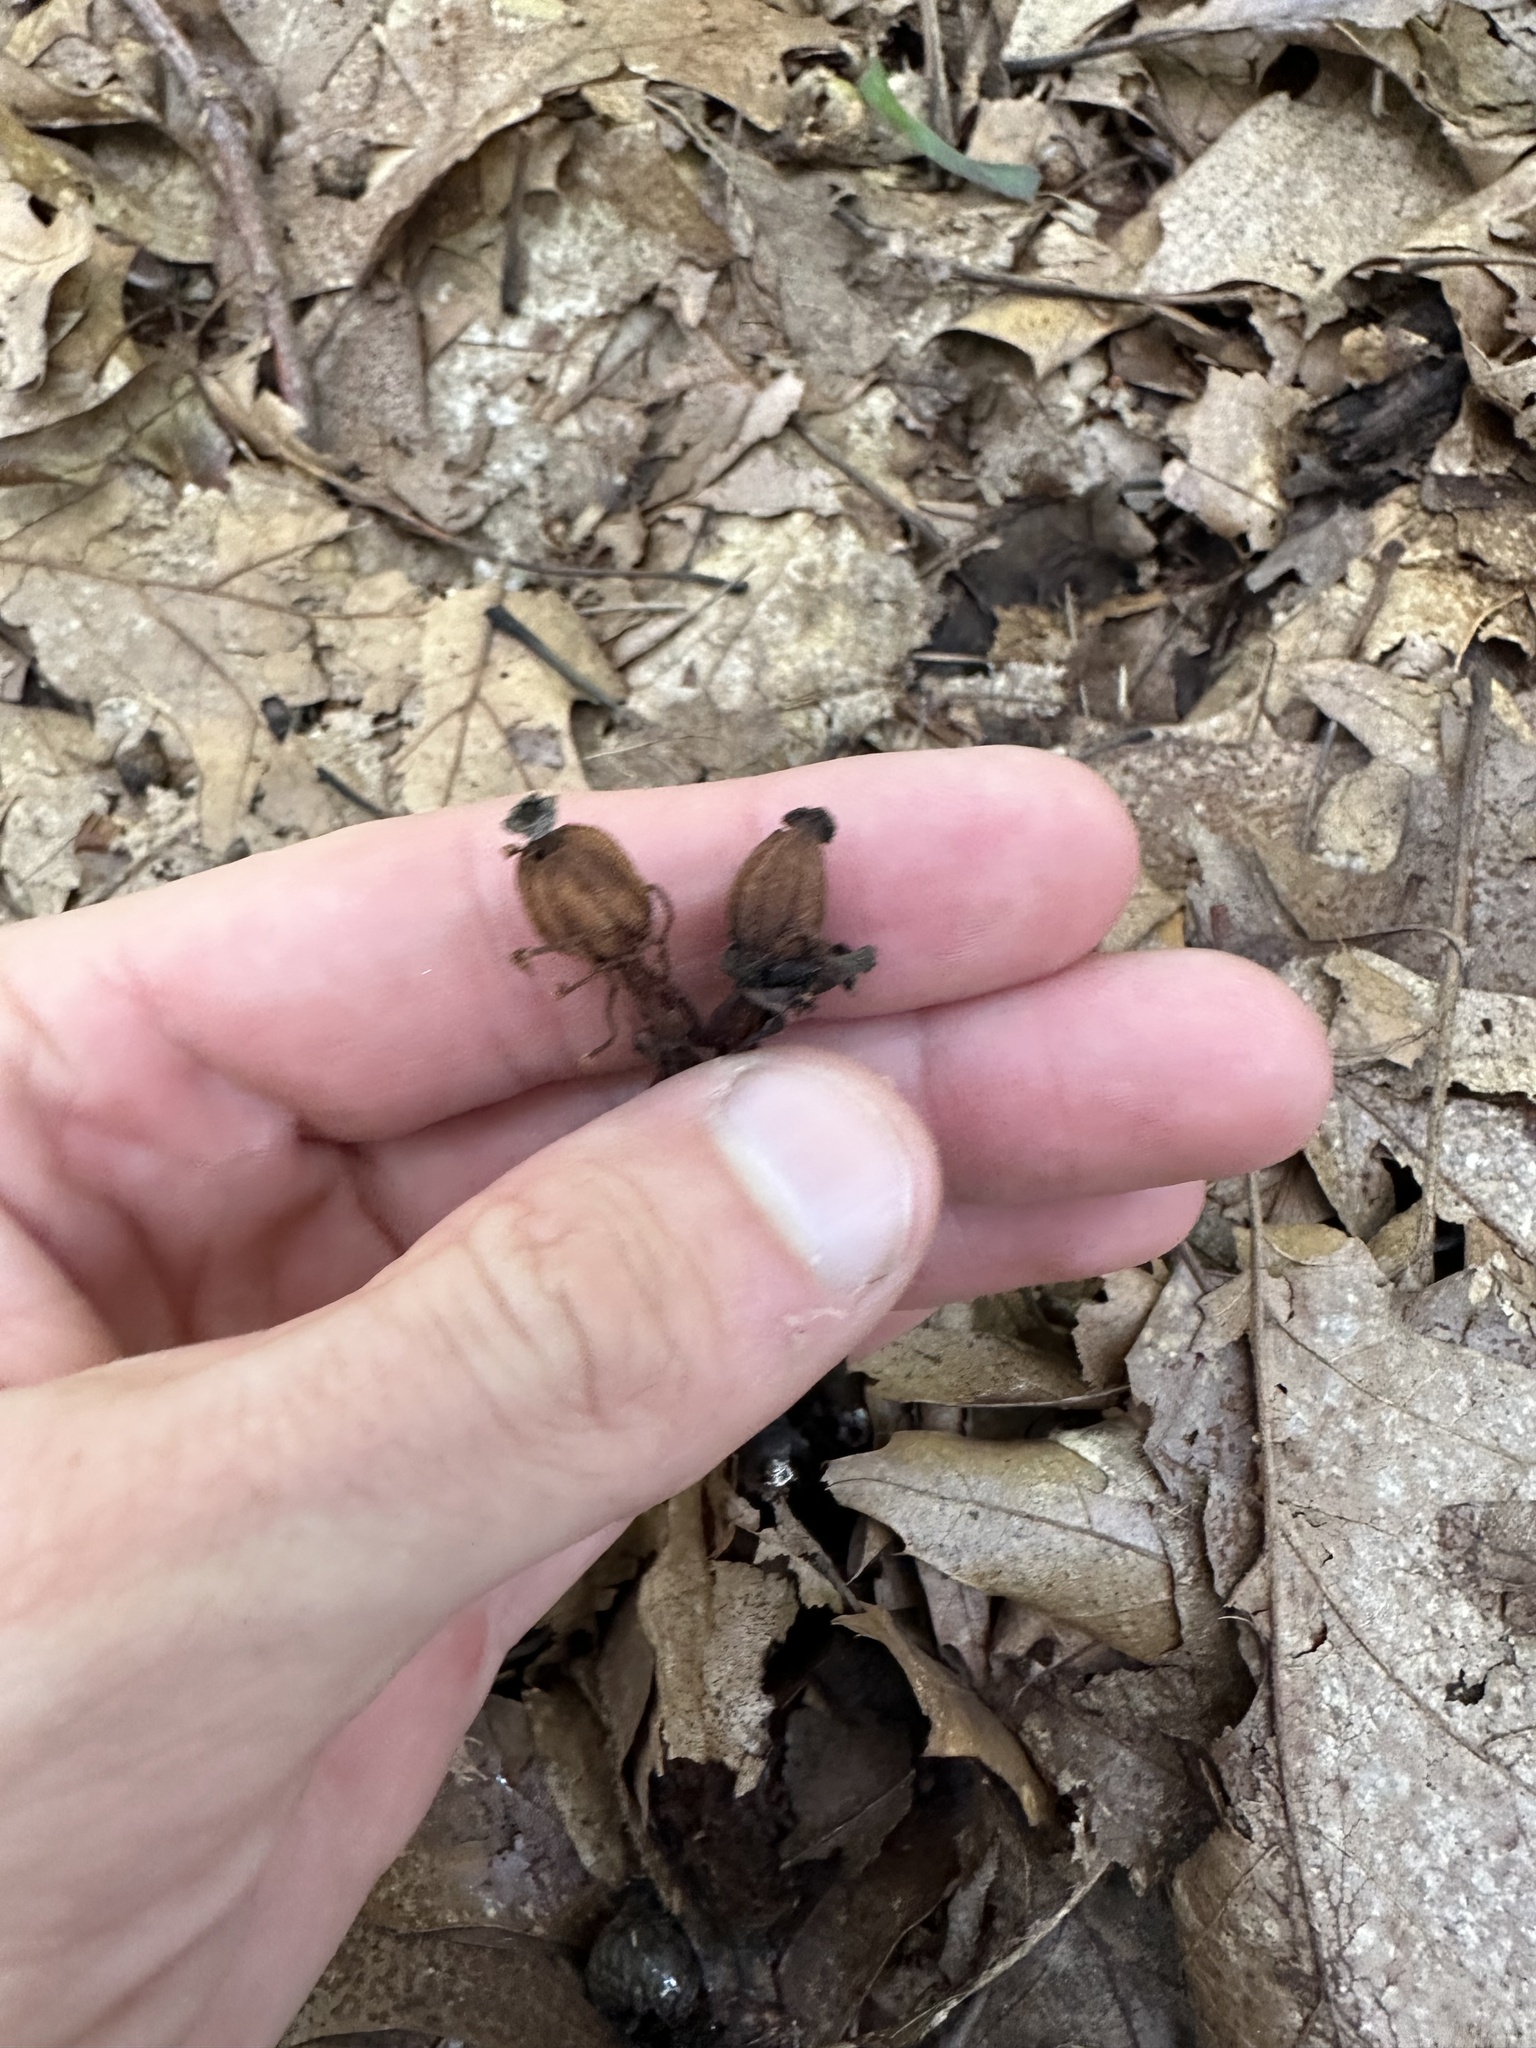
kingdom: Plantae
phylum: Tracheophyta
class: Magnoliopsida
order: Ericales
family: Ericaceae
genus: Monotropa
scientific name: Monotropa uniflora
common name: Convulsion root
